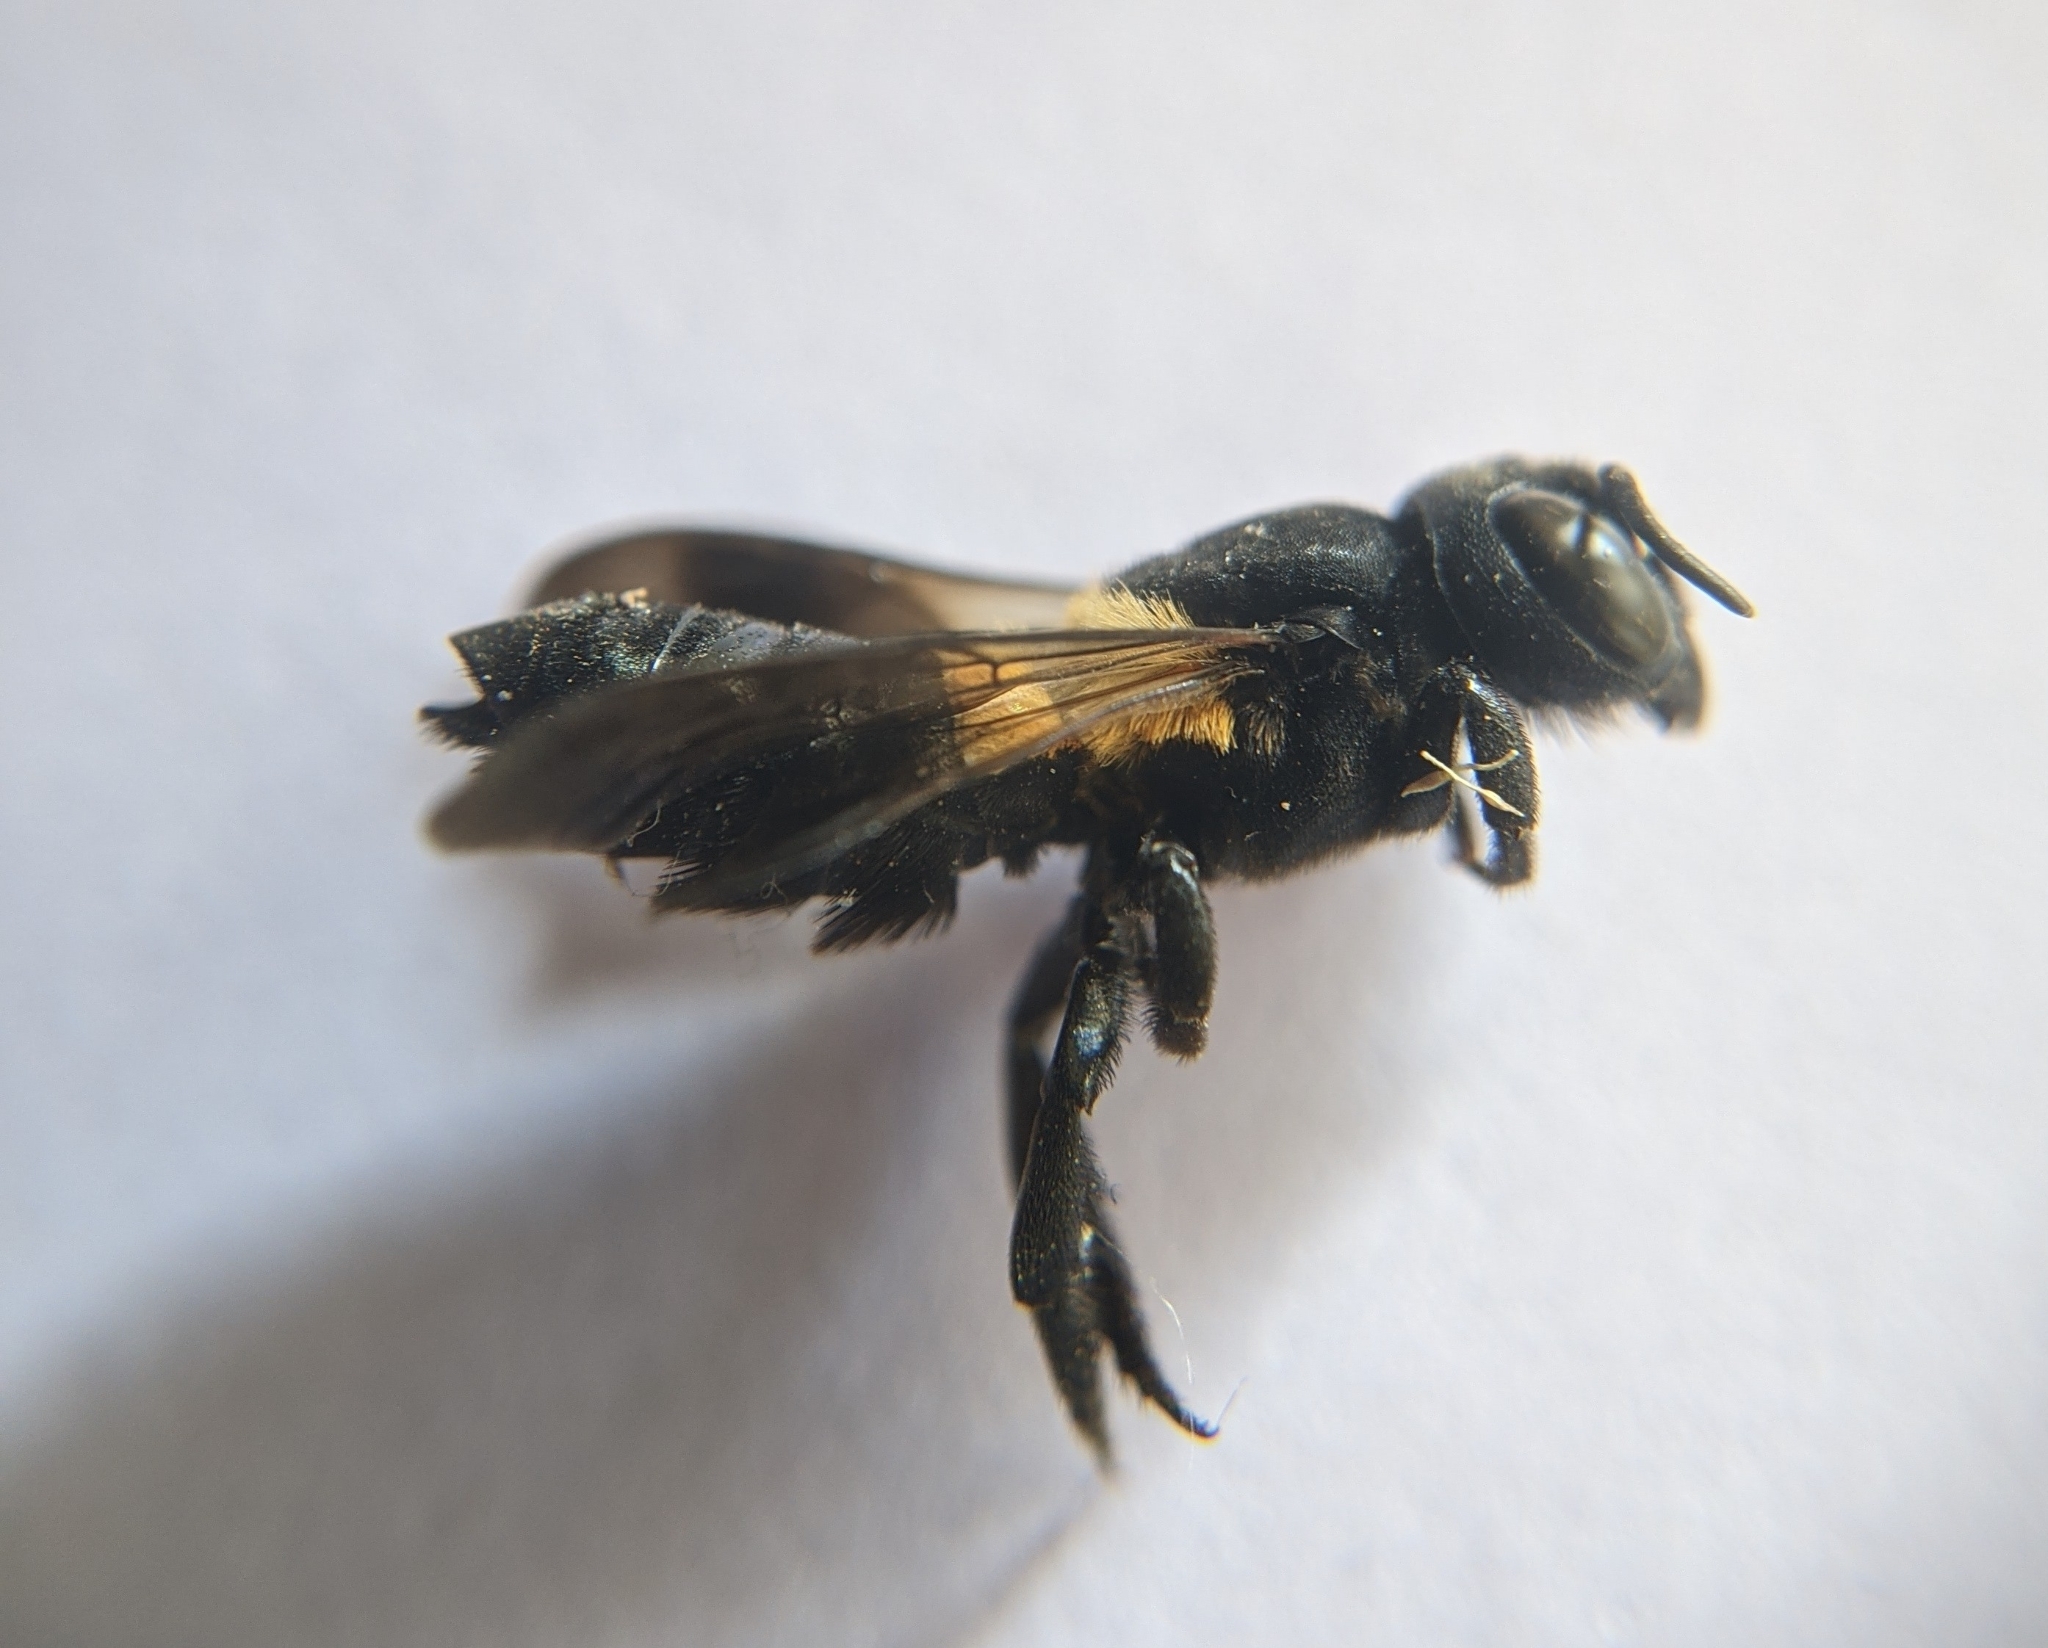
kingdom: Animalia
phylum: Arthropoda
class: Insecta
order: Hymenoptera
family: Megachilidae
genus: Megachile
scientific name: Megachile disjuncta
